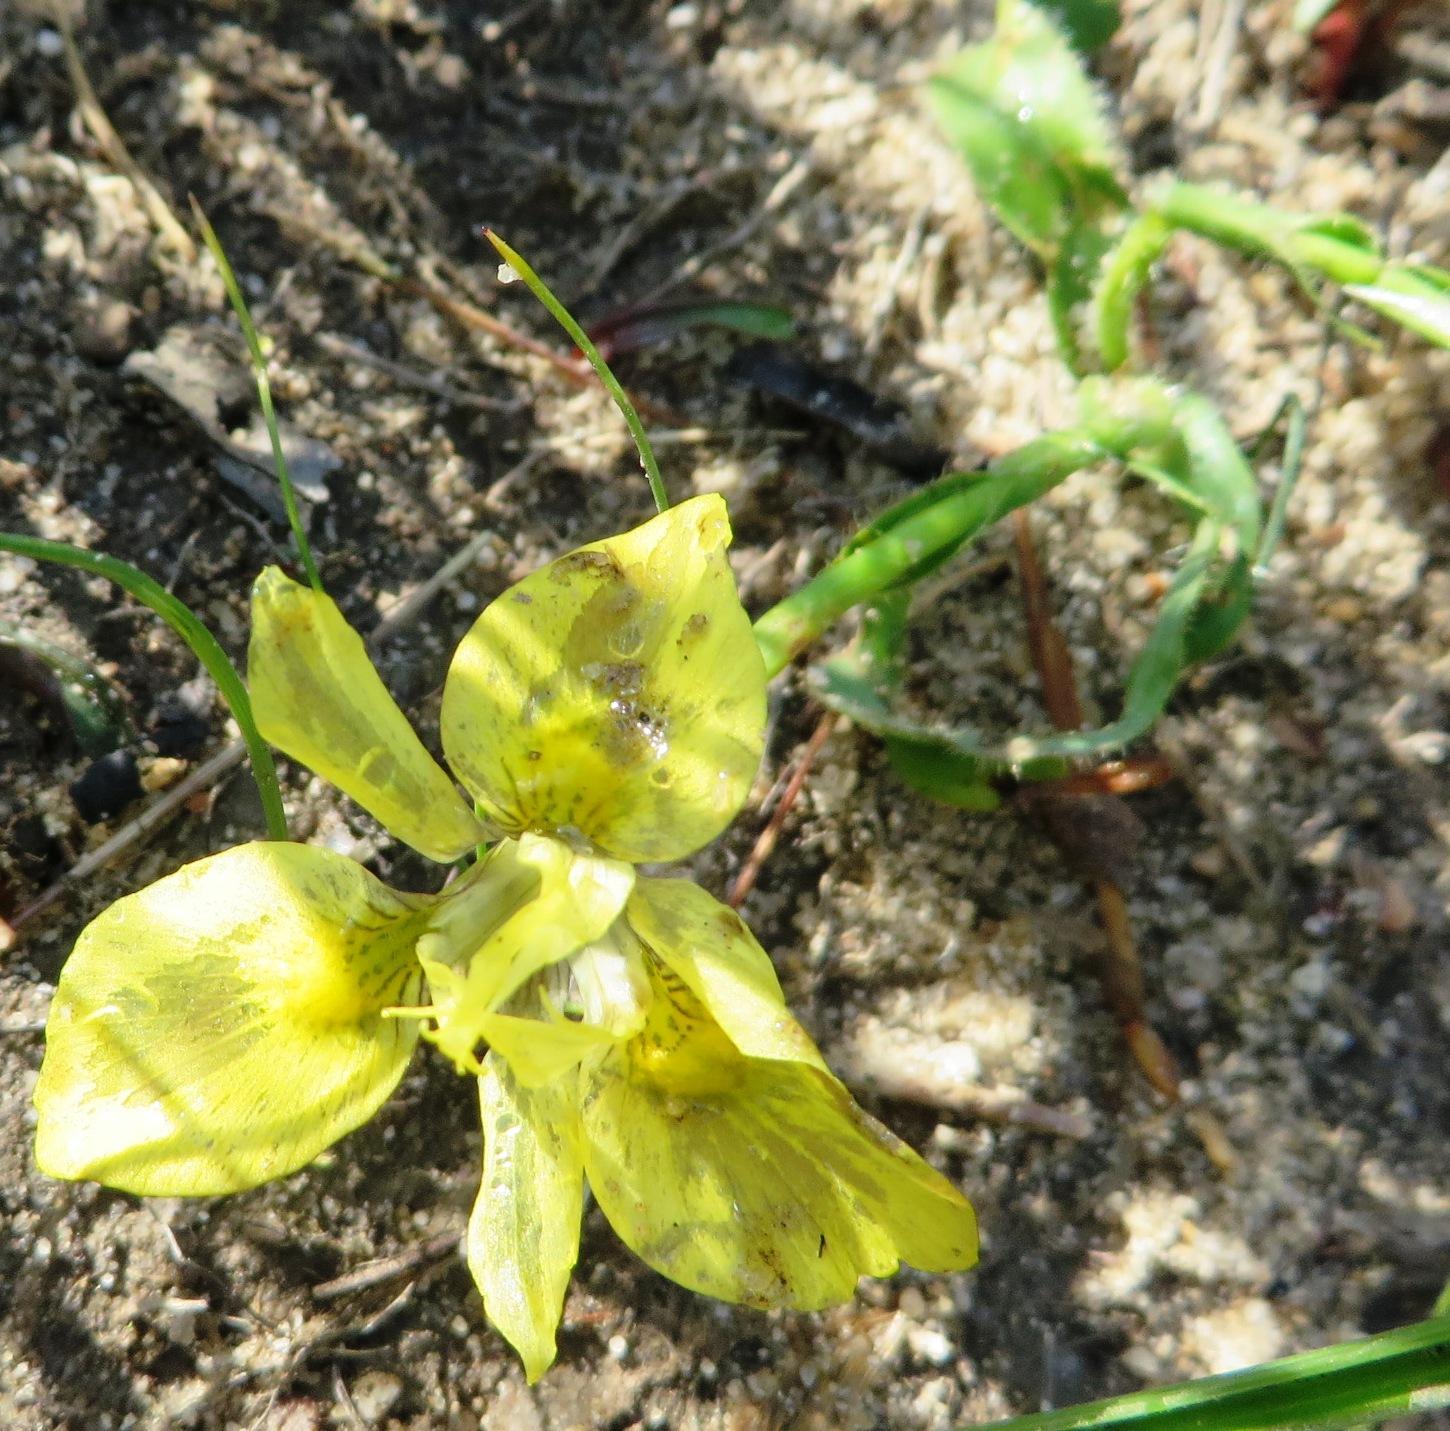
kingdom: Plantae
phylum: Tracheophyta
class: Liliopsida
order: Asparagales
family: Iridaceae
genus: Moraea
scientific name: Moraea papilionacea
